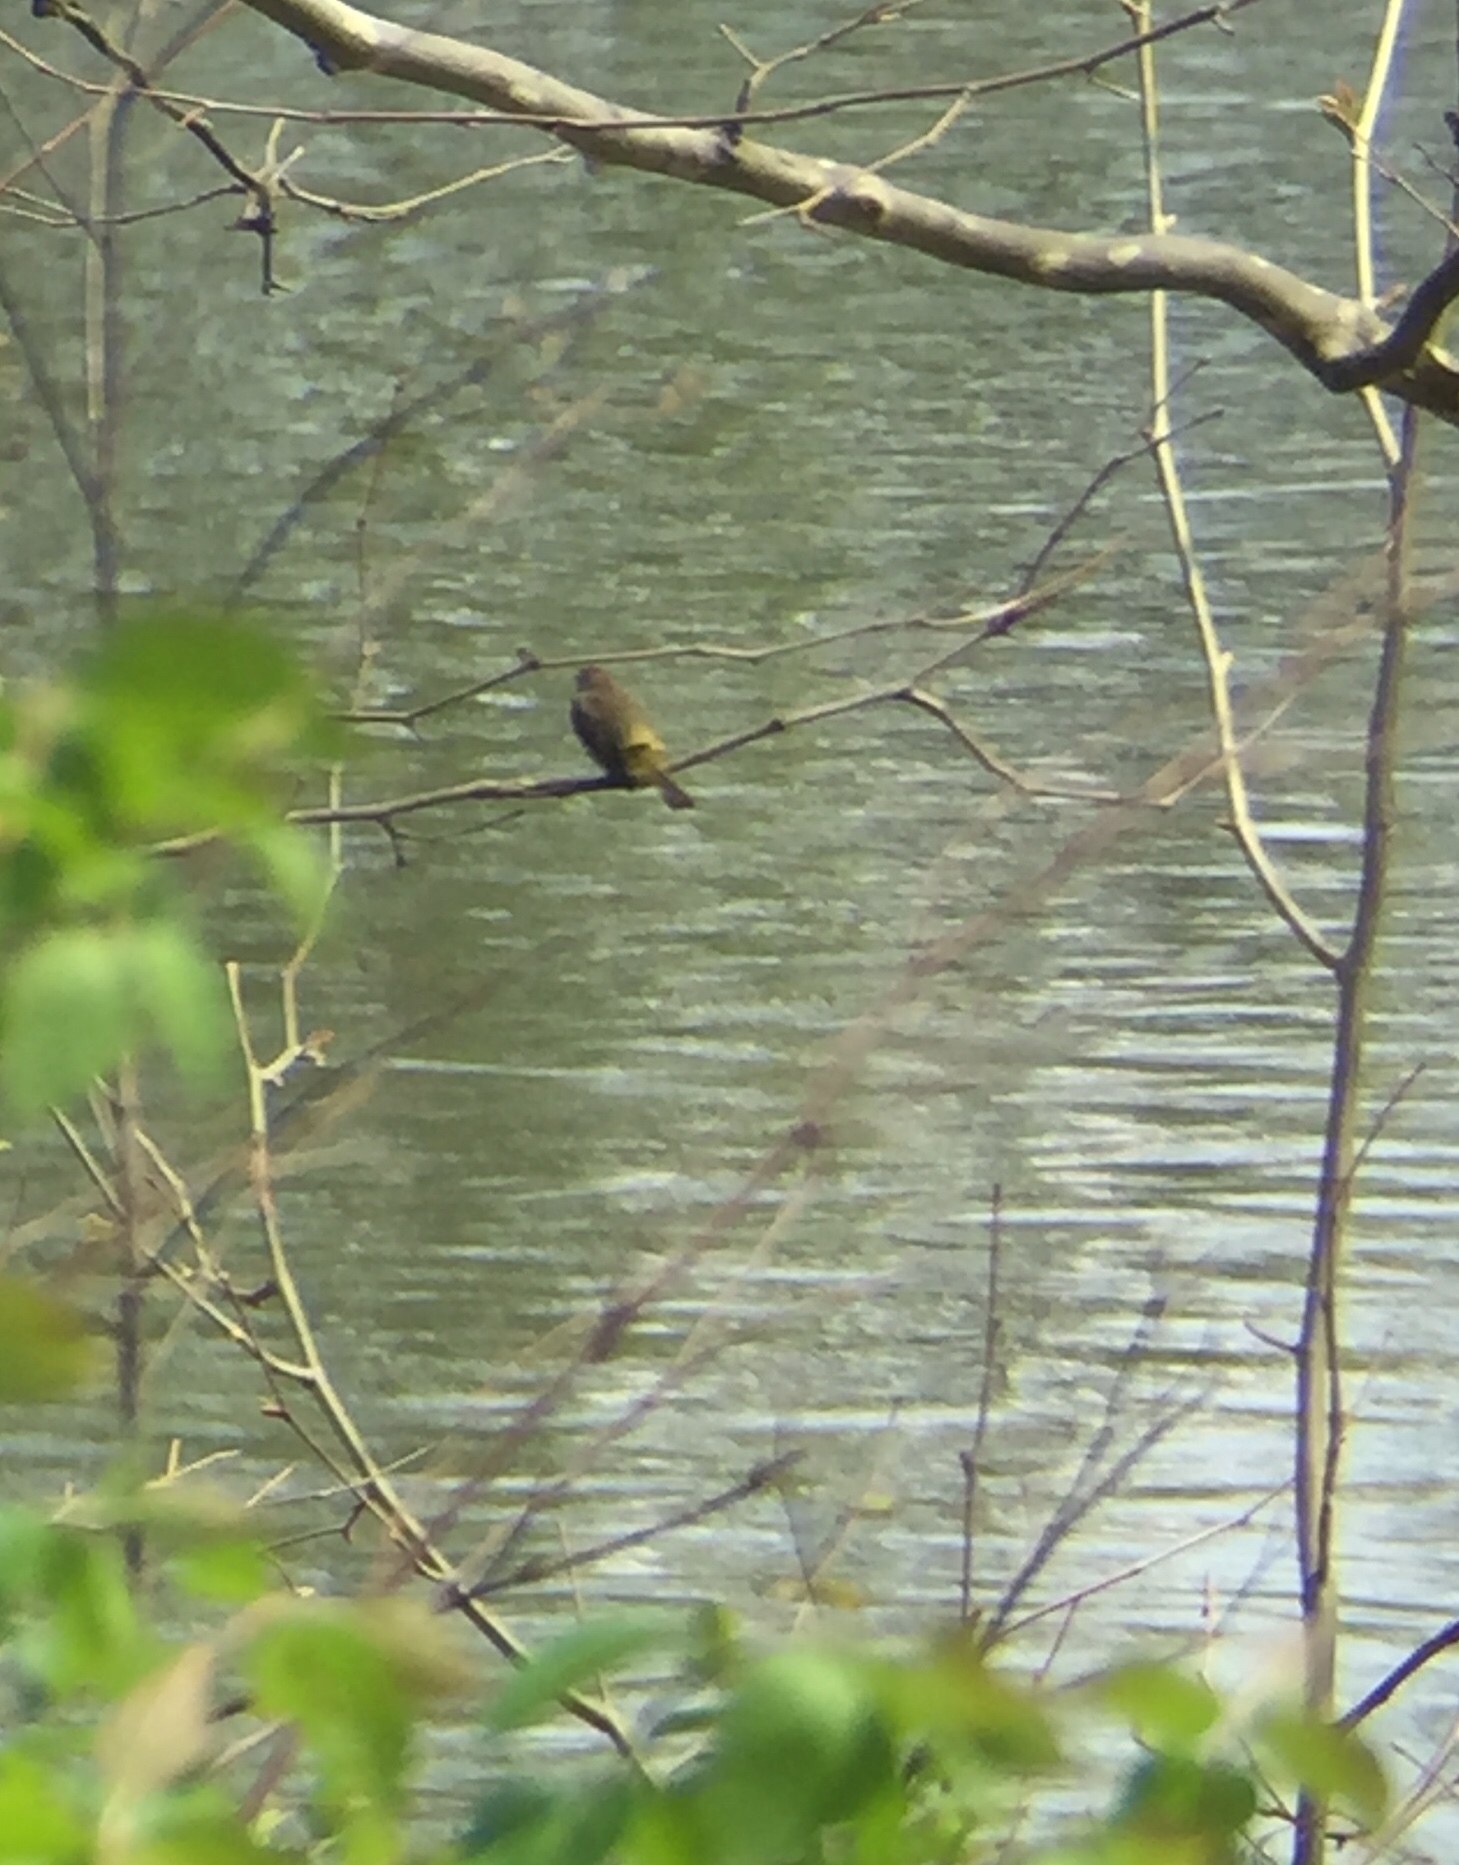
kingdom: Animalia
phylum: Chordata
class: Aves
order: Passeriformes
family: Parulidae
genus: Setophaga
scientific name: Setophaga coronata
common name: Myrtle warbler
